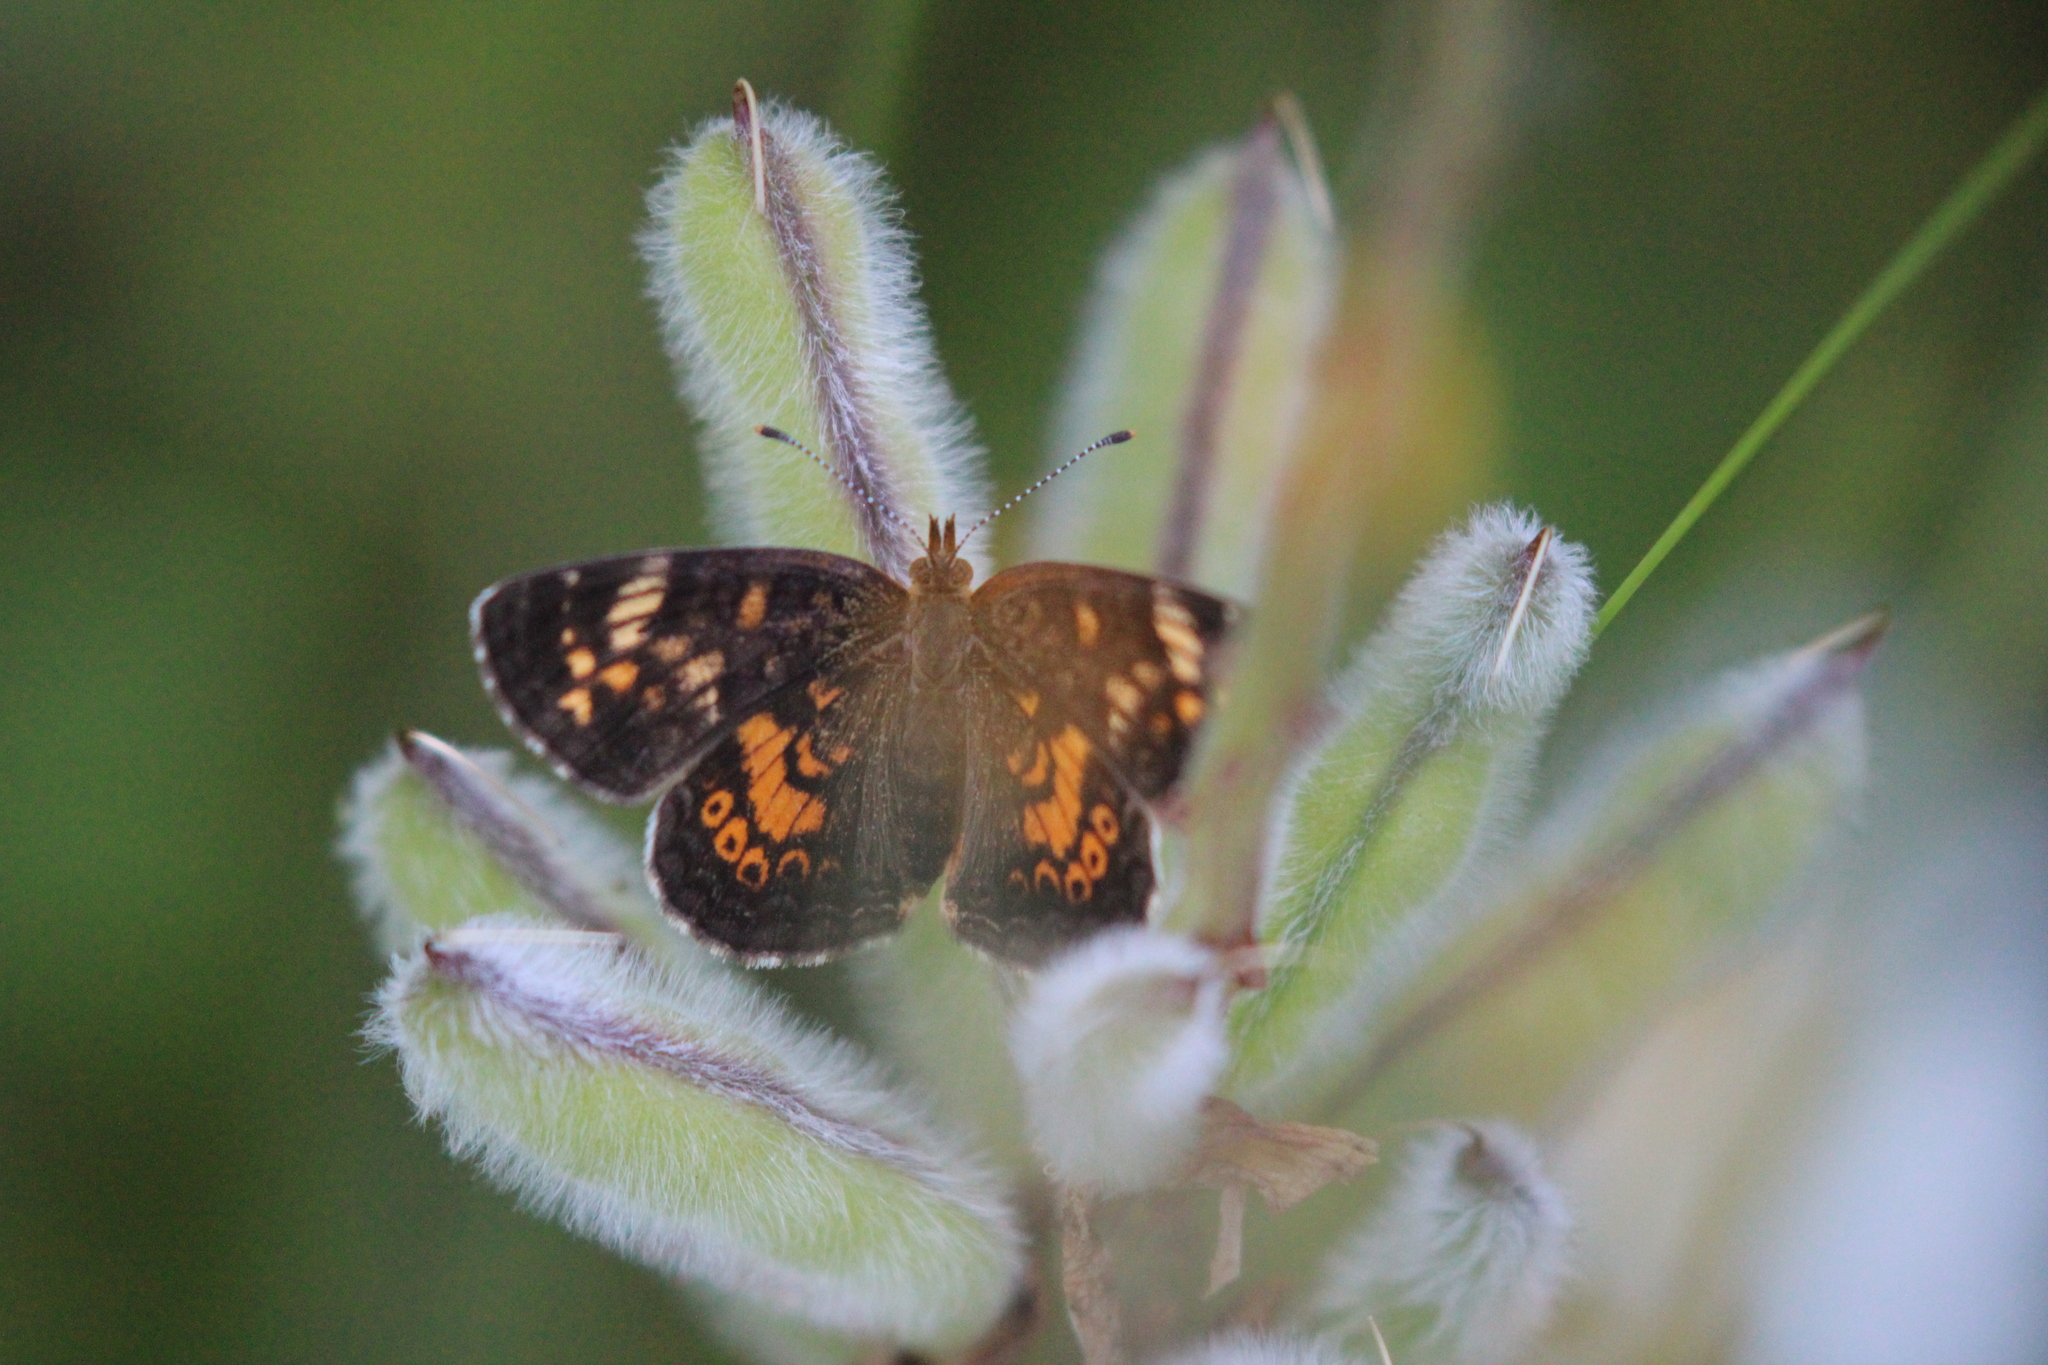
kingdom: Animalia
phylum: Arthropoda
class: Insecta
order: Lepidoptera
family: Nymphalidae
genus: Phyciodes
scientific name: Phyciodes tharos
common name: Pearl crescent
